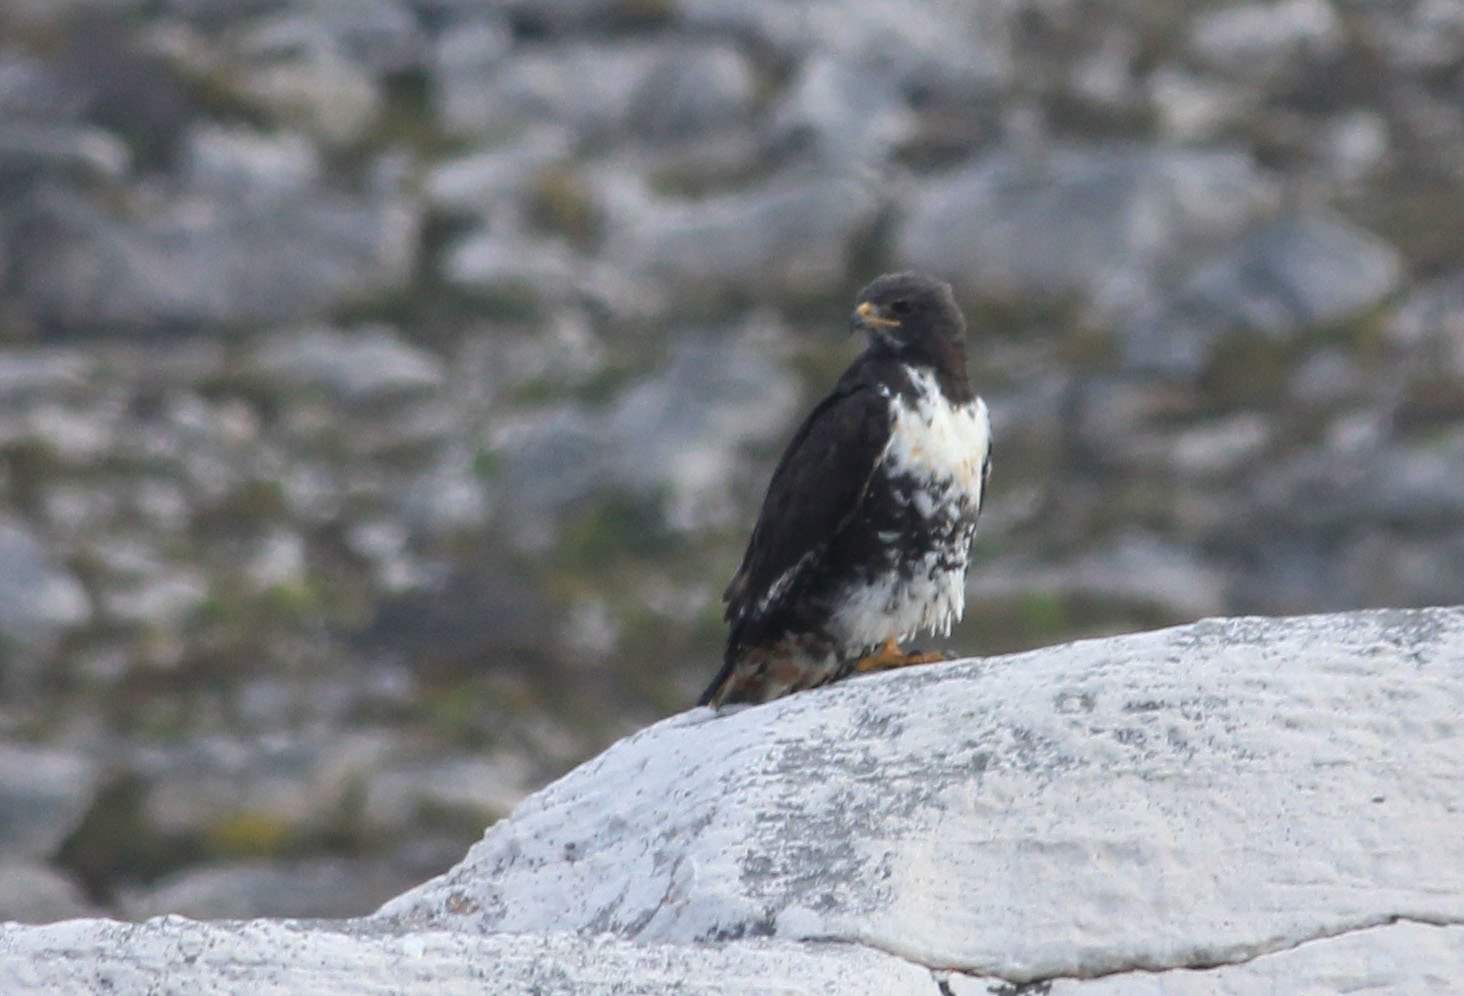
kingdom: Animalia
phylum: Chordata
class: Aves
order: Accipitriformes
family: Accipitridae
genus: Buteo
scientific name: Buteo rufofuscus
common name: Jackal buzzard
